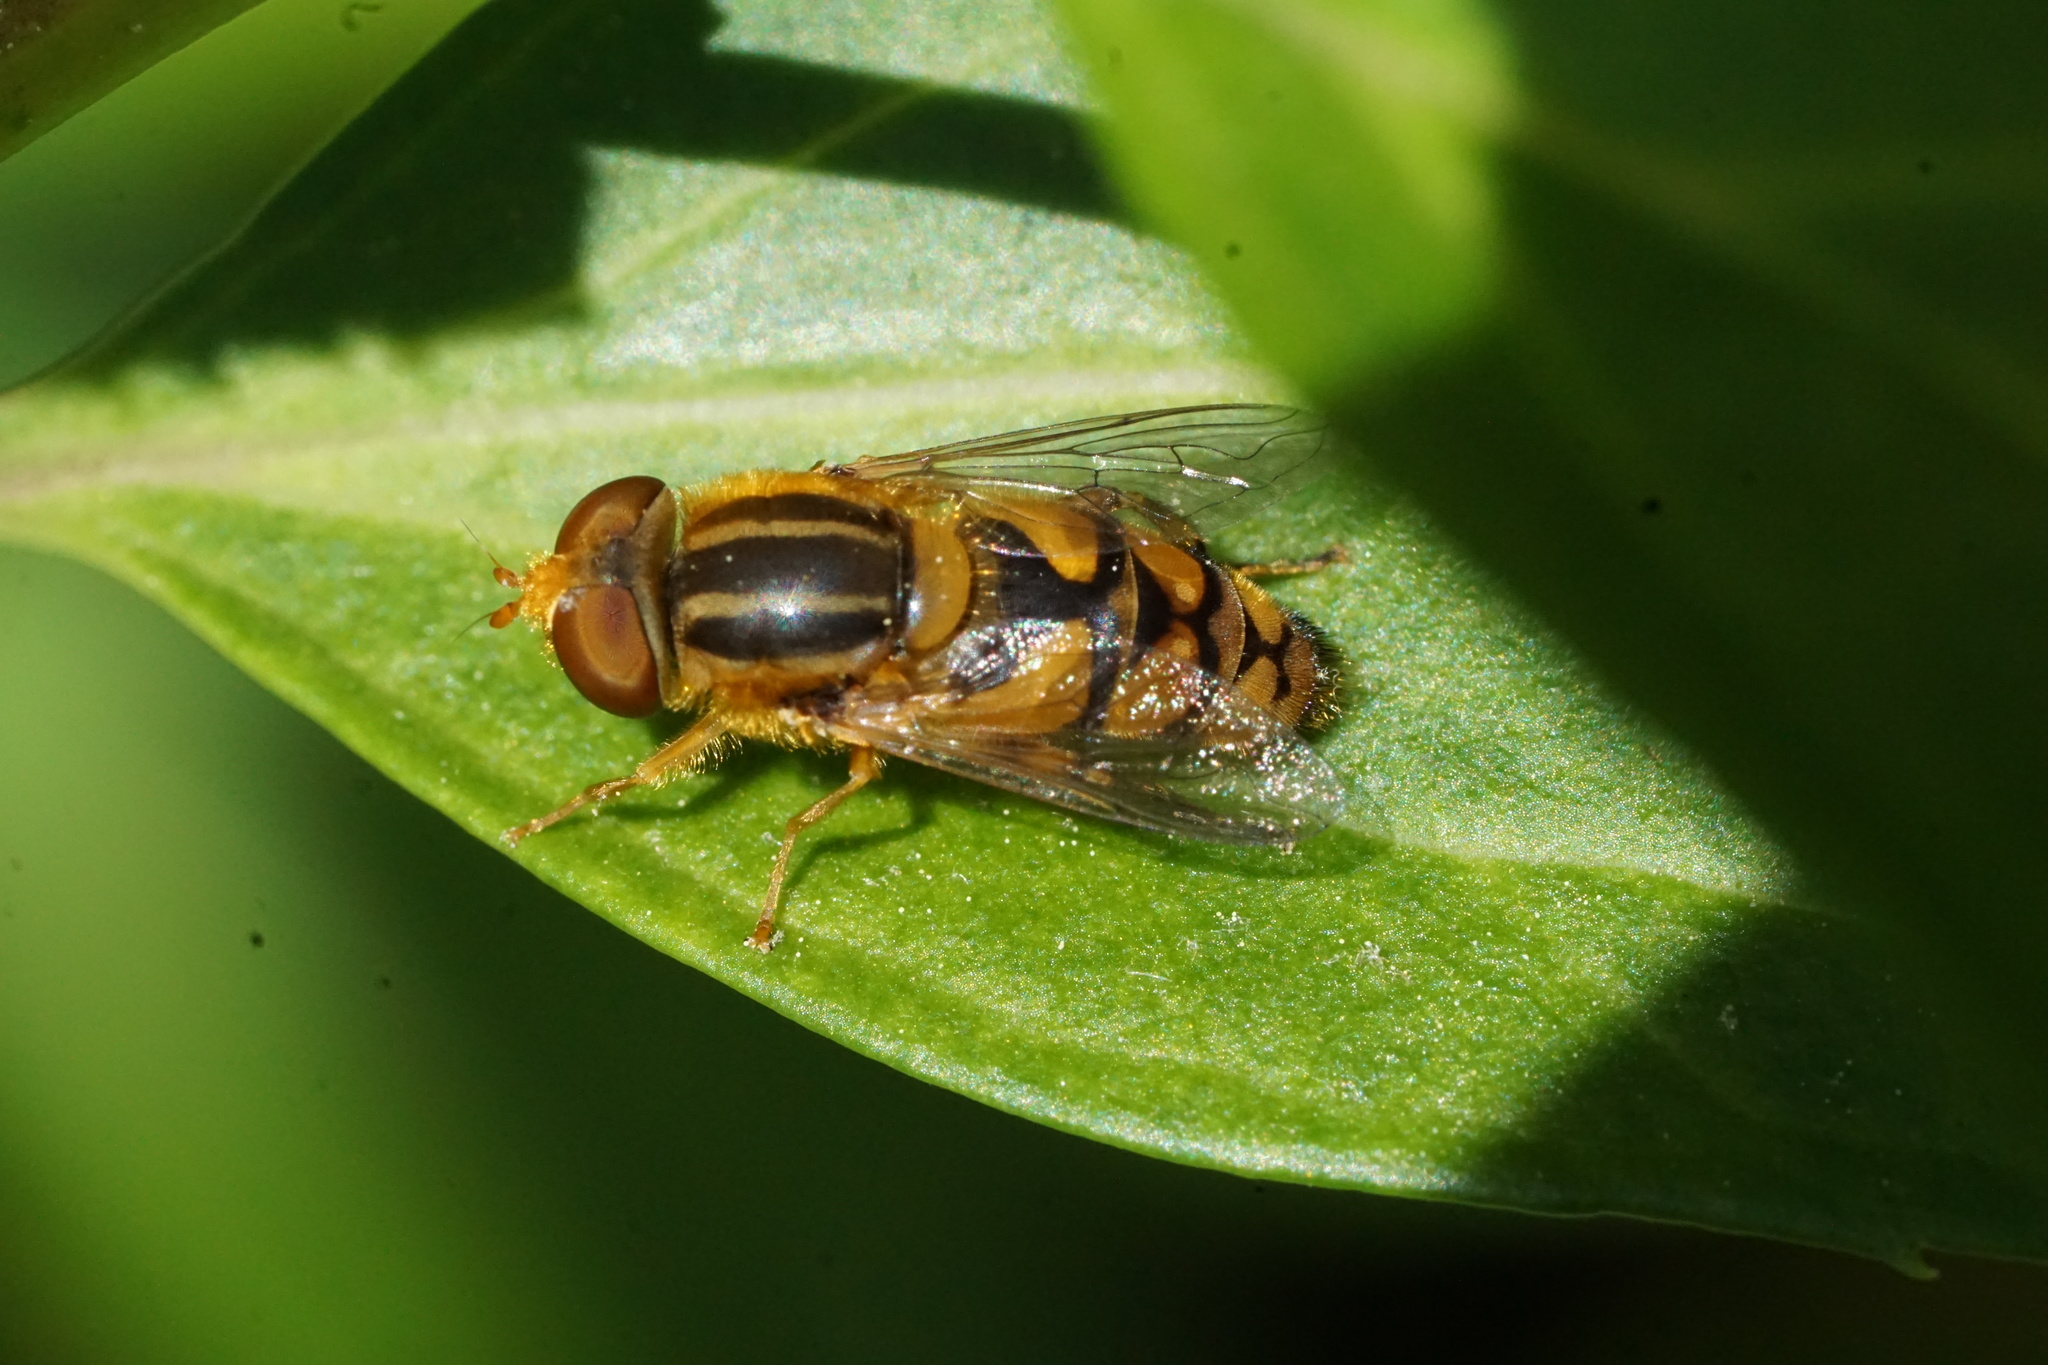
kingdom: Animalia
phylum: Arthropoda
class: Insecta
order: Diptera
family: Syrphidae
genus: Parhelophilus
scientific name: Parhelophilus integer
